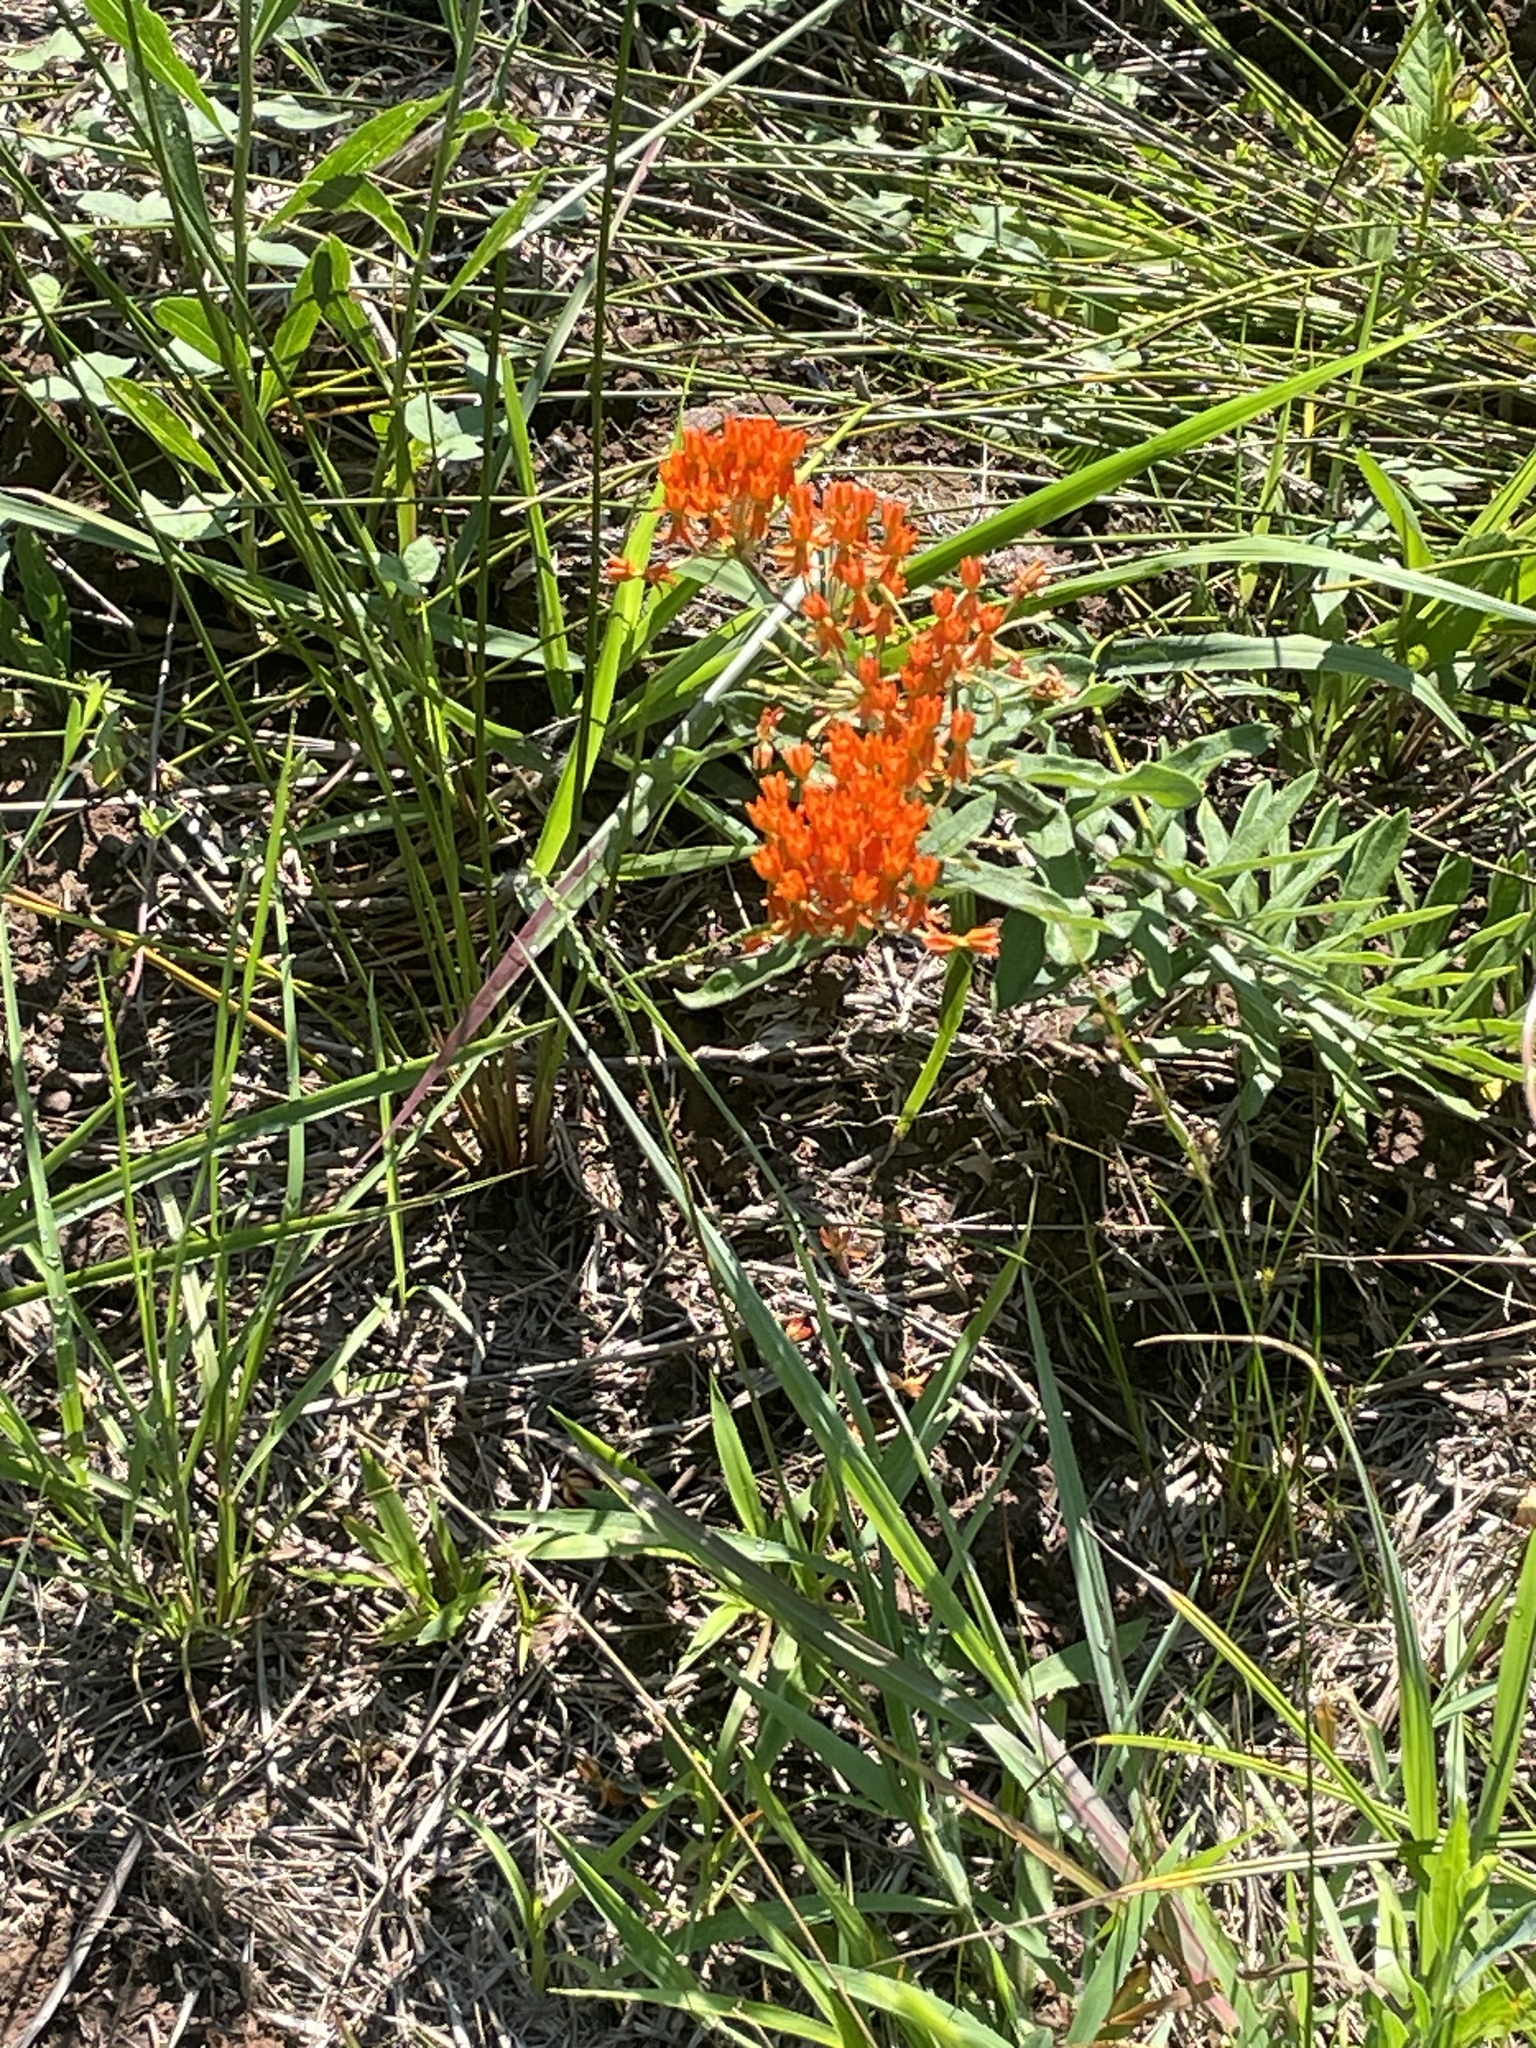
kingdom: Plantae
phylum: Tracheophyta
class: Magnoliopsida
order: Gentianales
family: Apocynaceae
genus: Asclepias
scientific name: Asclepias tuberosa
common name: Butterfly milkweed
